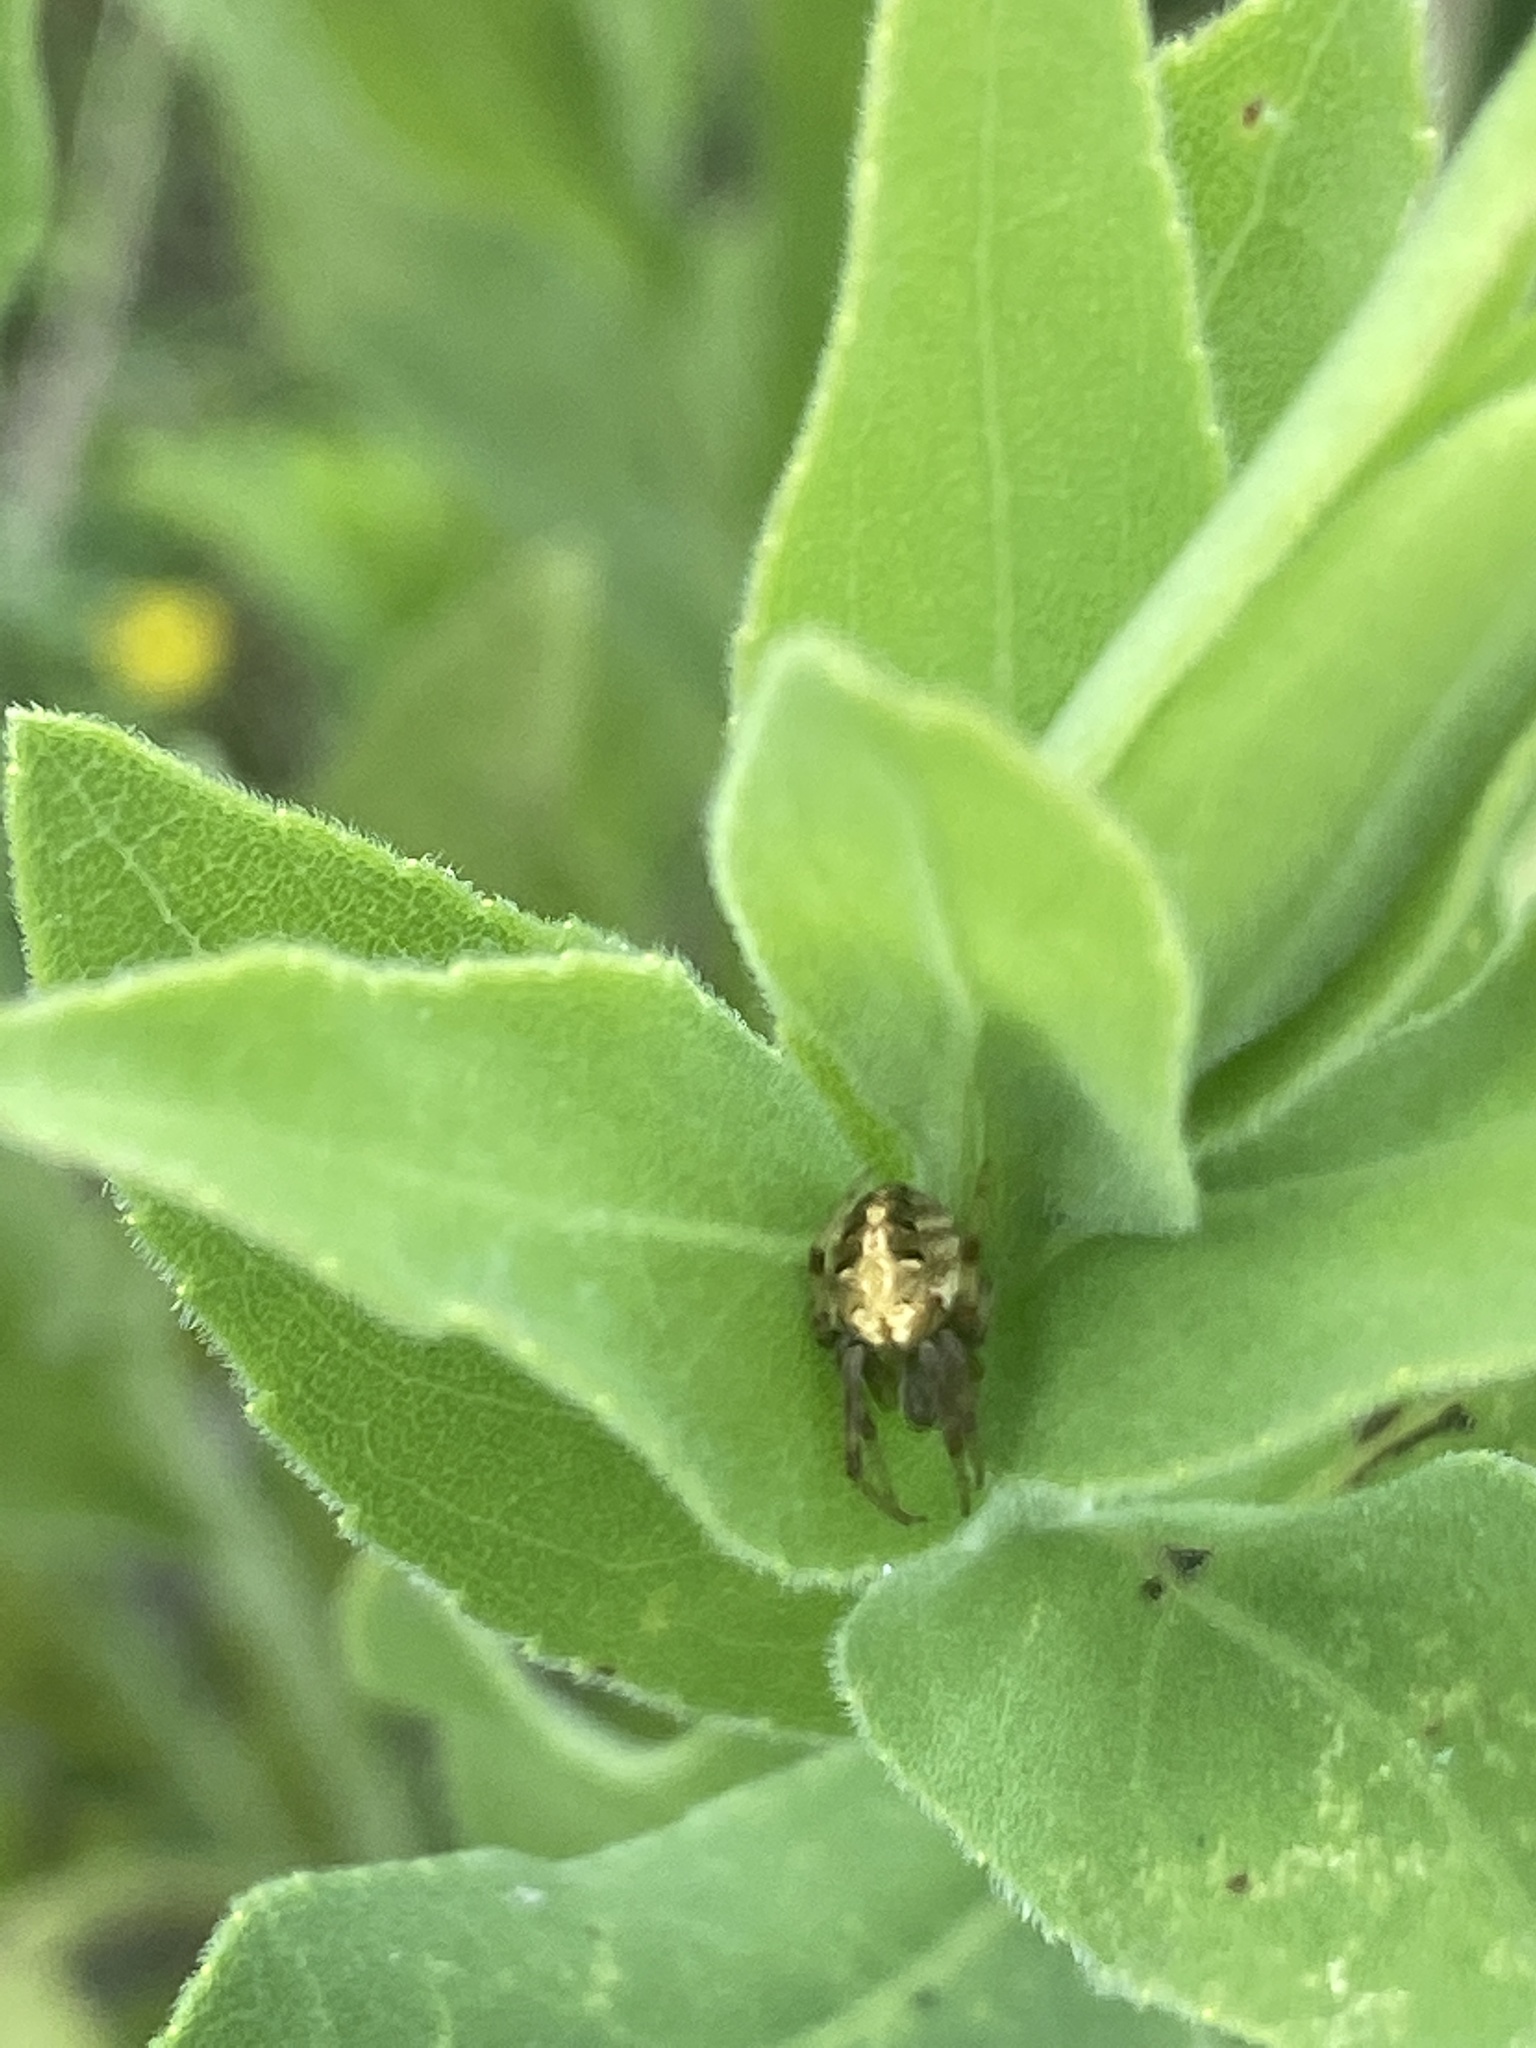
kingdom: Animalia
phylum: Arthropoda
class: Arachnida
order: Araneae
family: Araneidae
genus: Neoscona
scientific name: Neoscona arabesca
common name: Orb weavers
